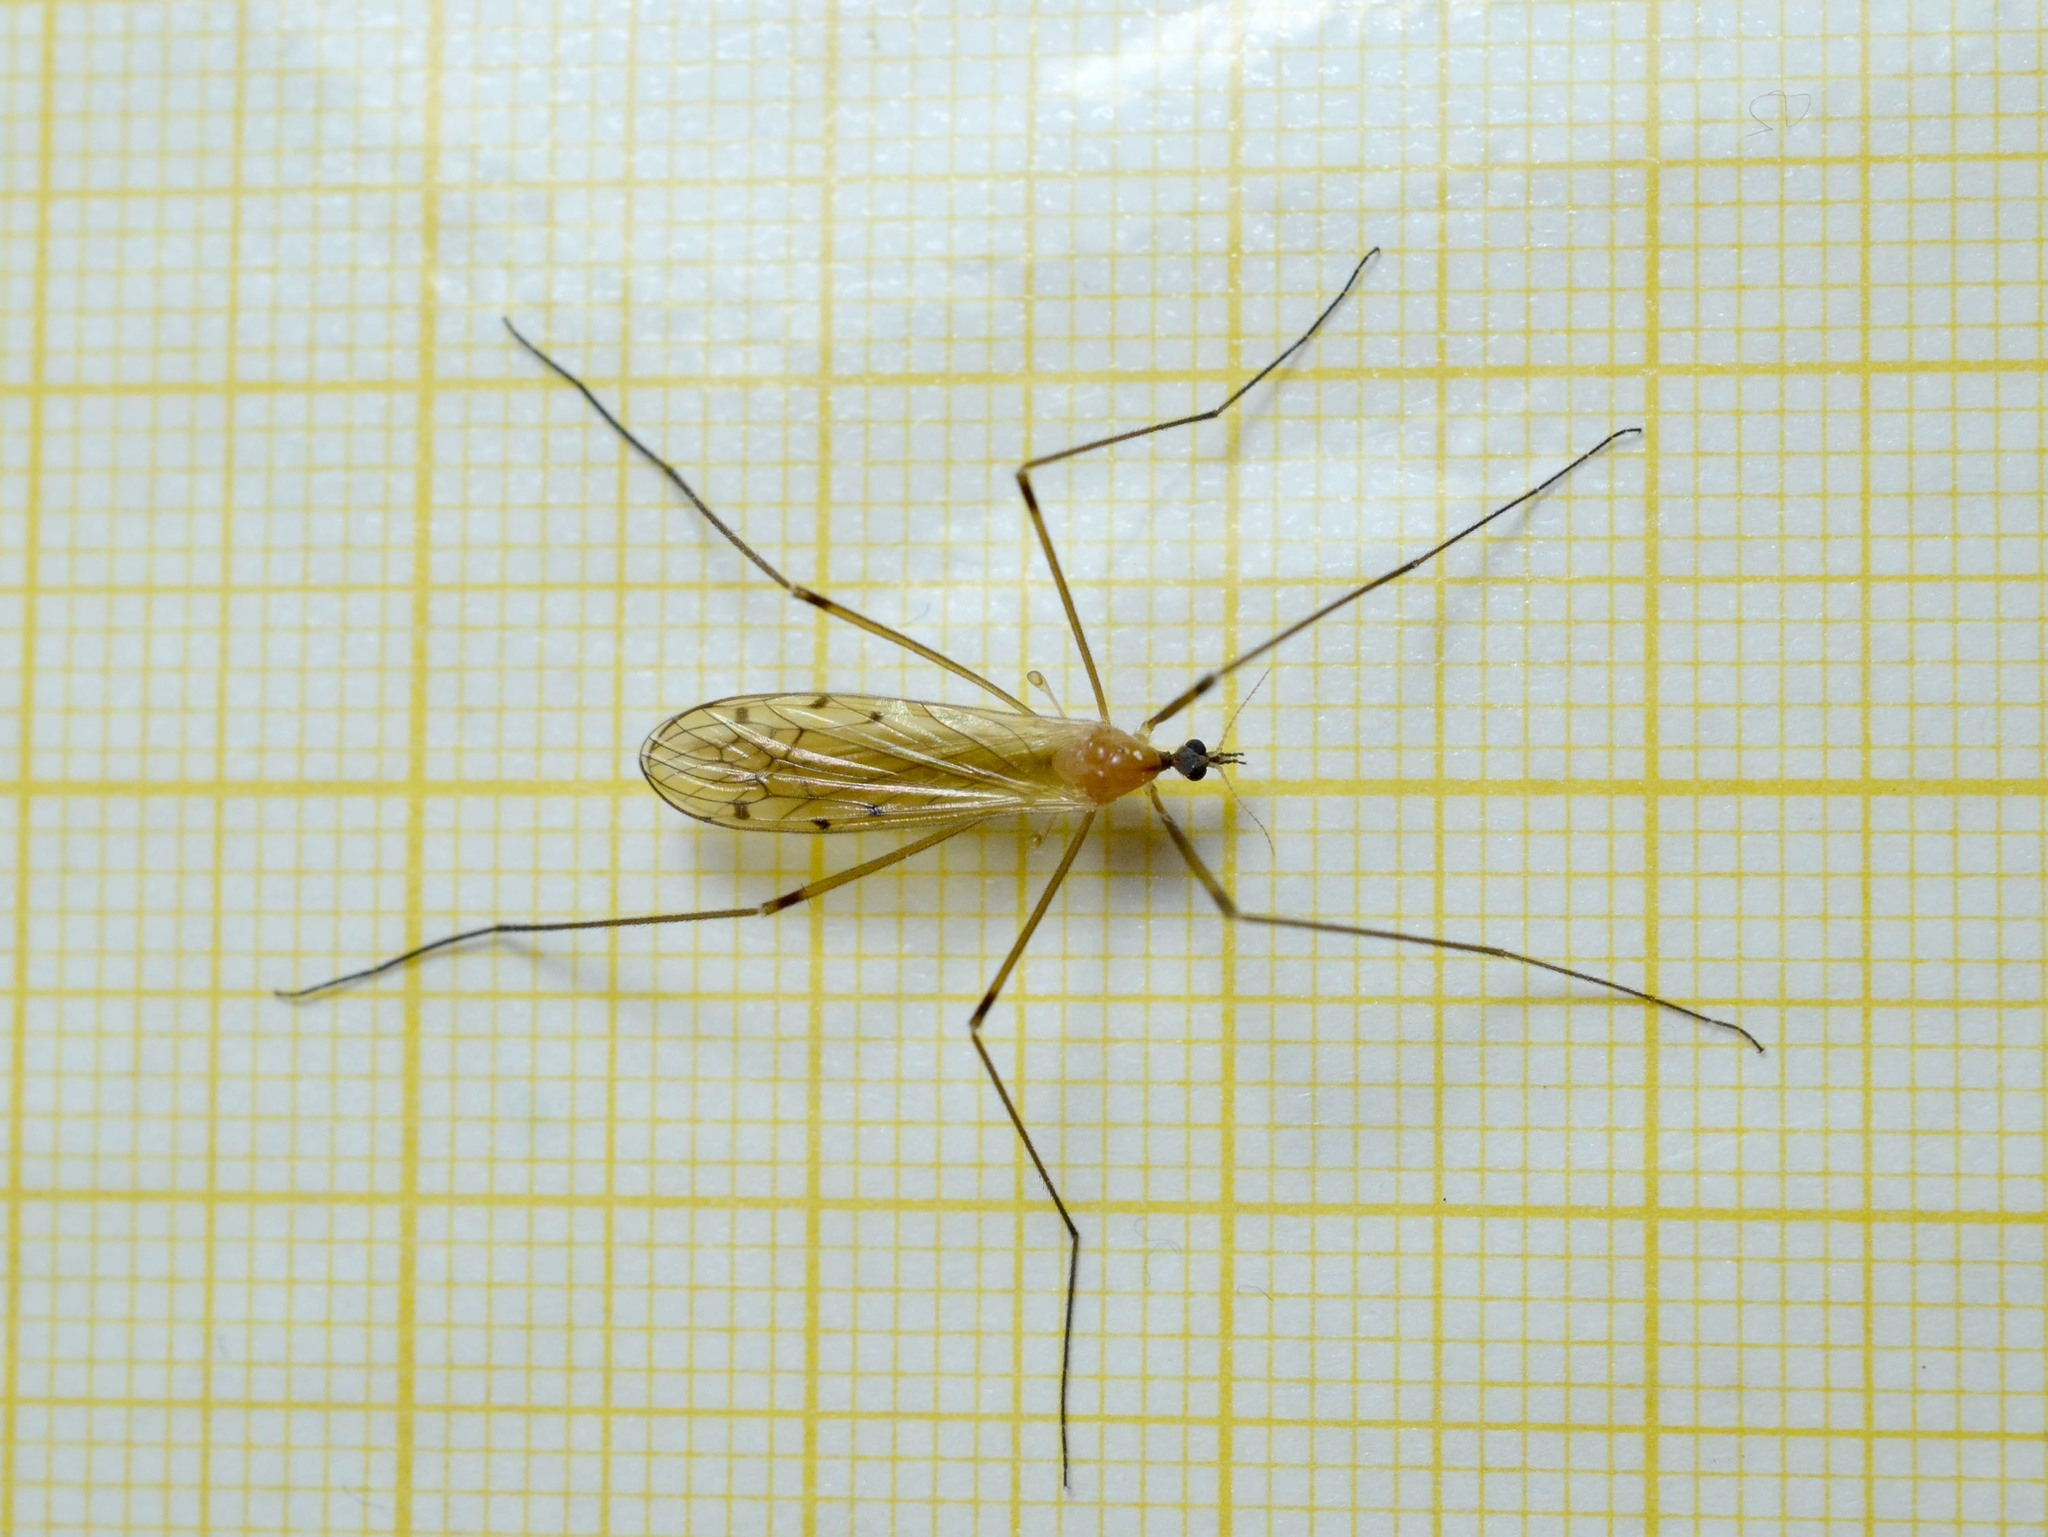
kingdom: Animalia
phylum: Arthropoda
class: Insecta
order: Diptera
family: Limoniidae
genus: Limonia
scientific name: Limonia phragmitidis
